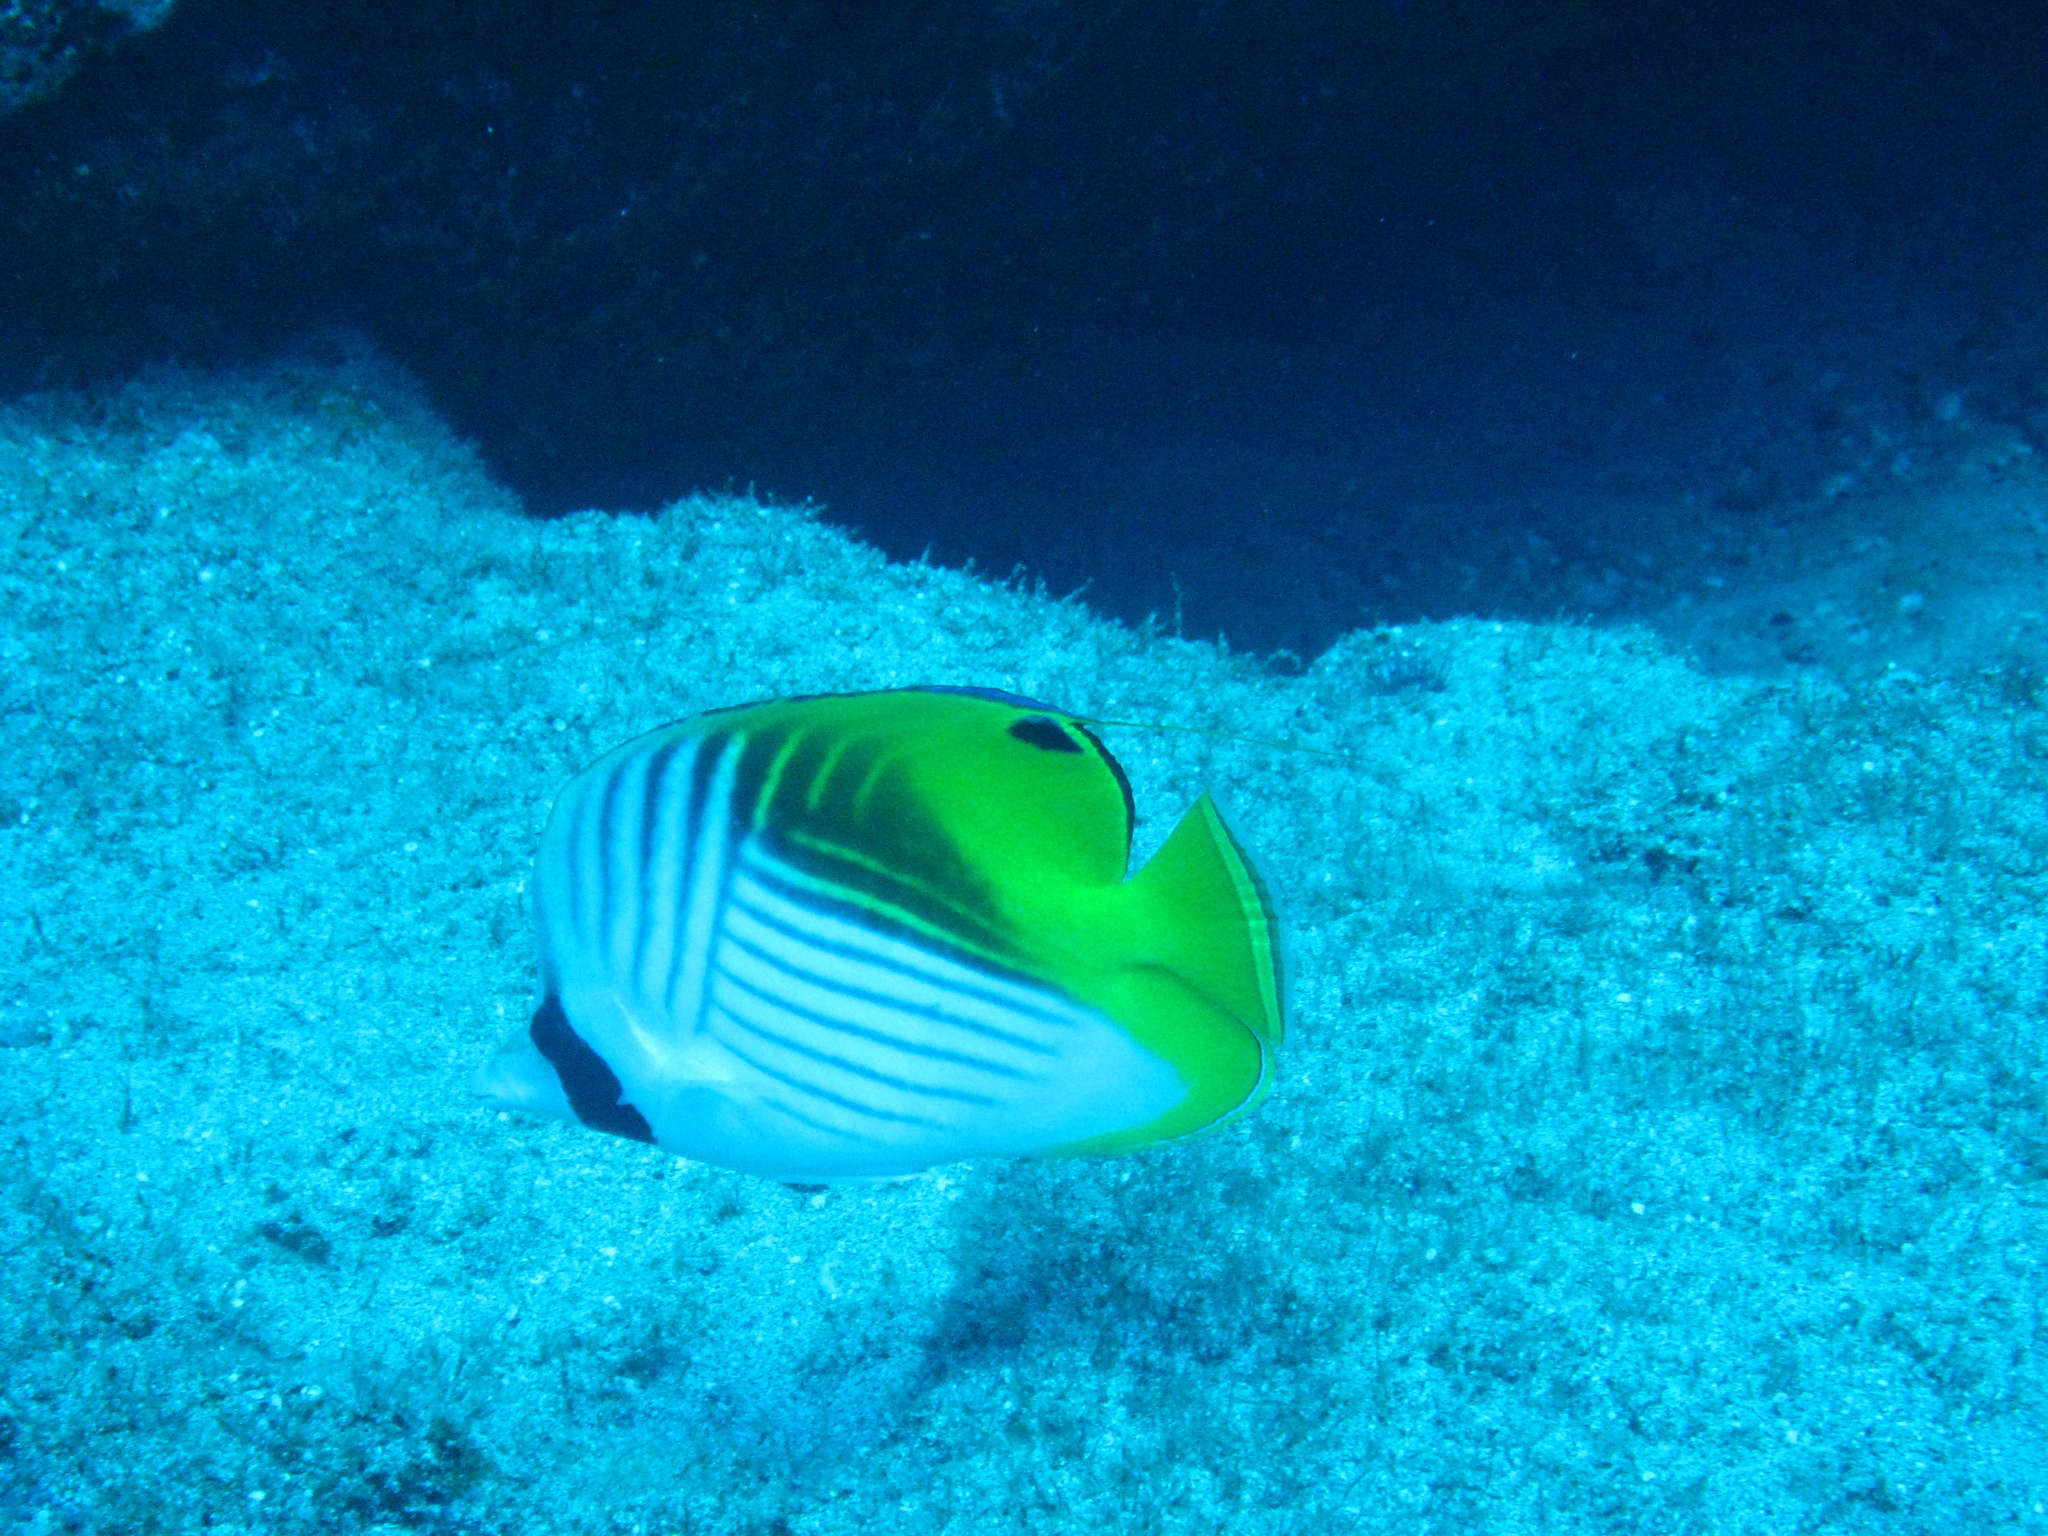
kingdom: Animalia
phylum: Chordata
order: Perciformes
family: Chaetodontidae
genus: Chaetodon
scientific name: Chaetodon auriga
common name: Threadfin butterflyfish
